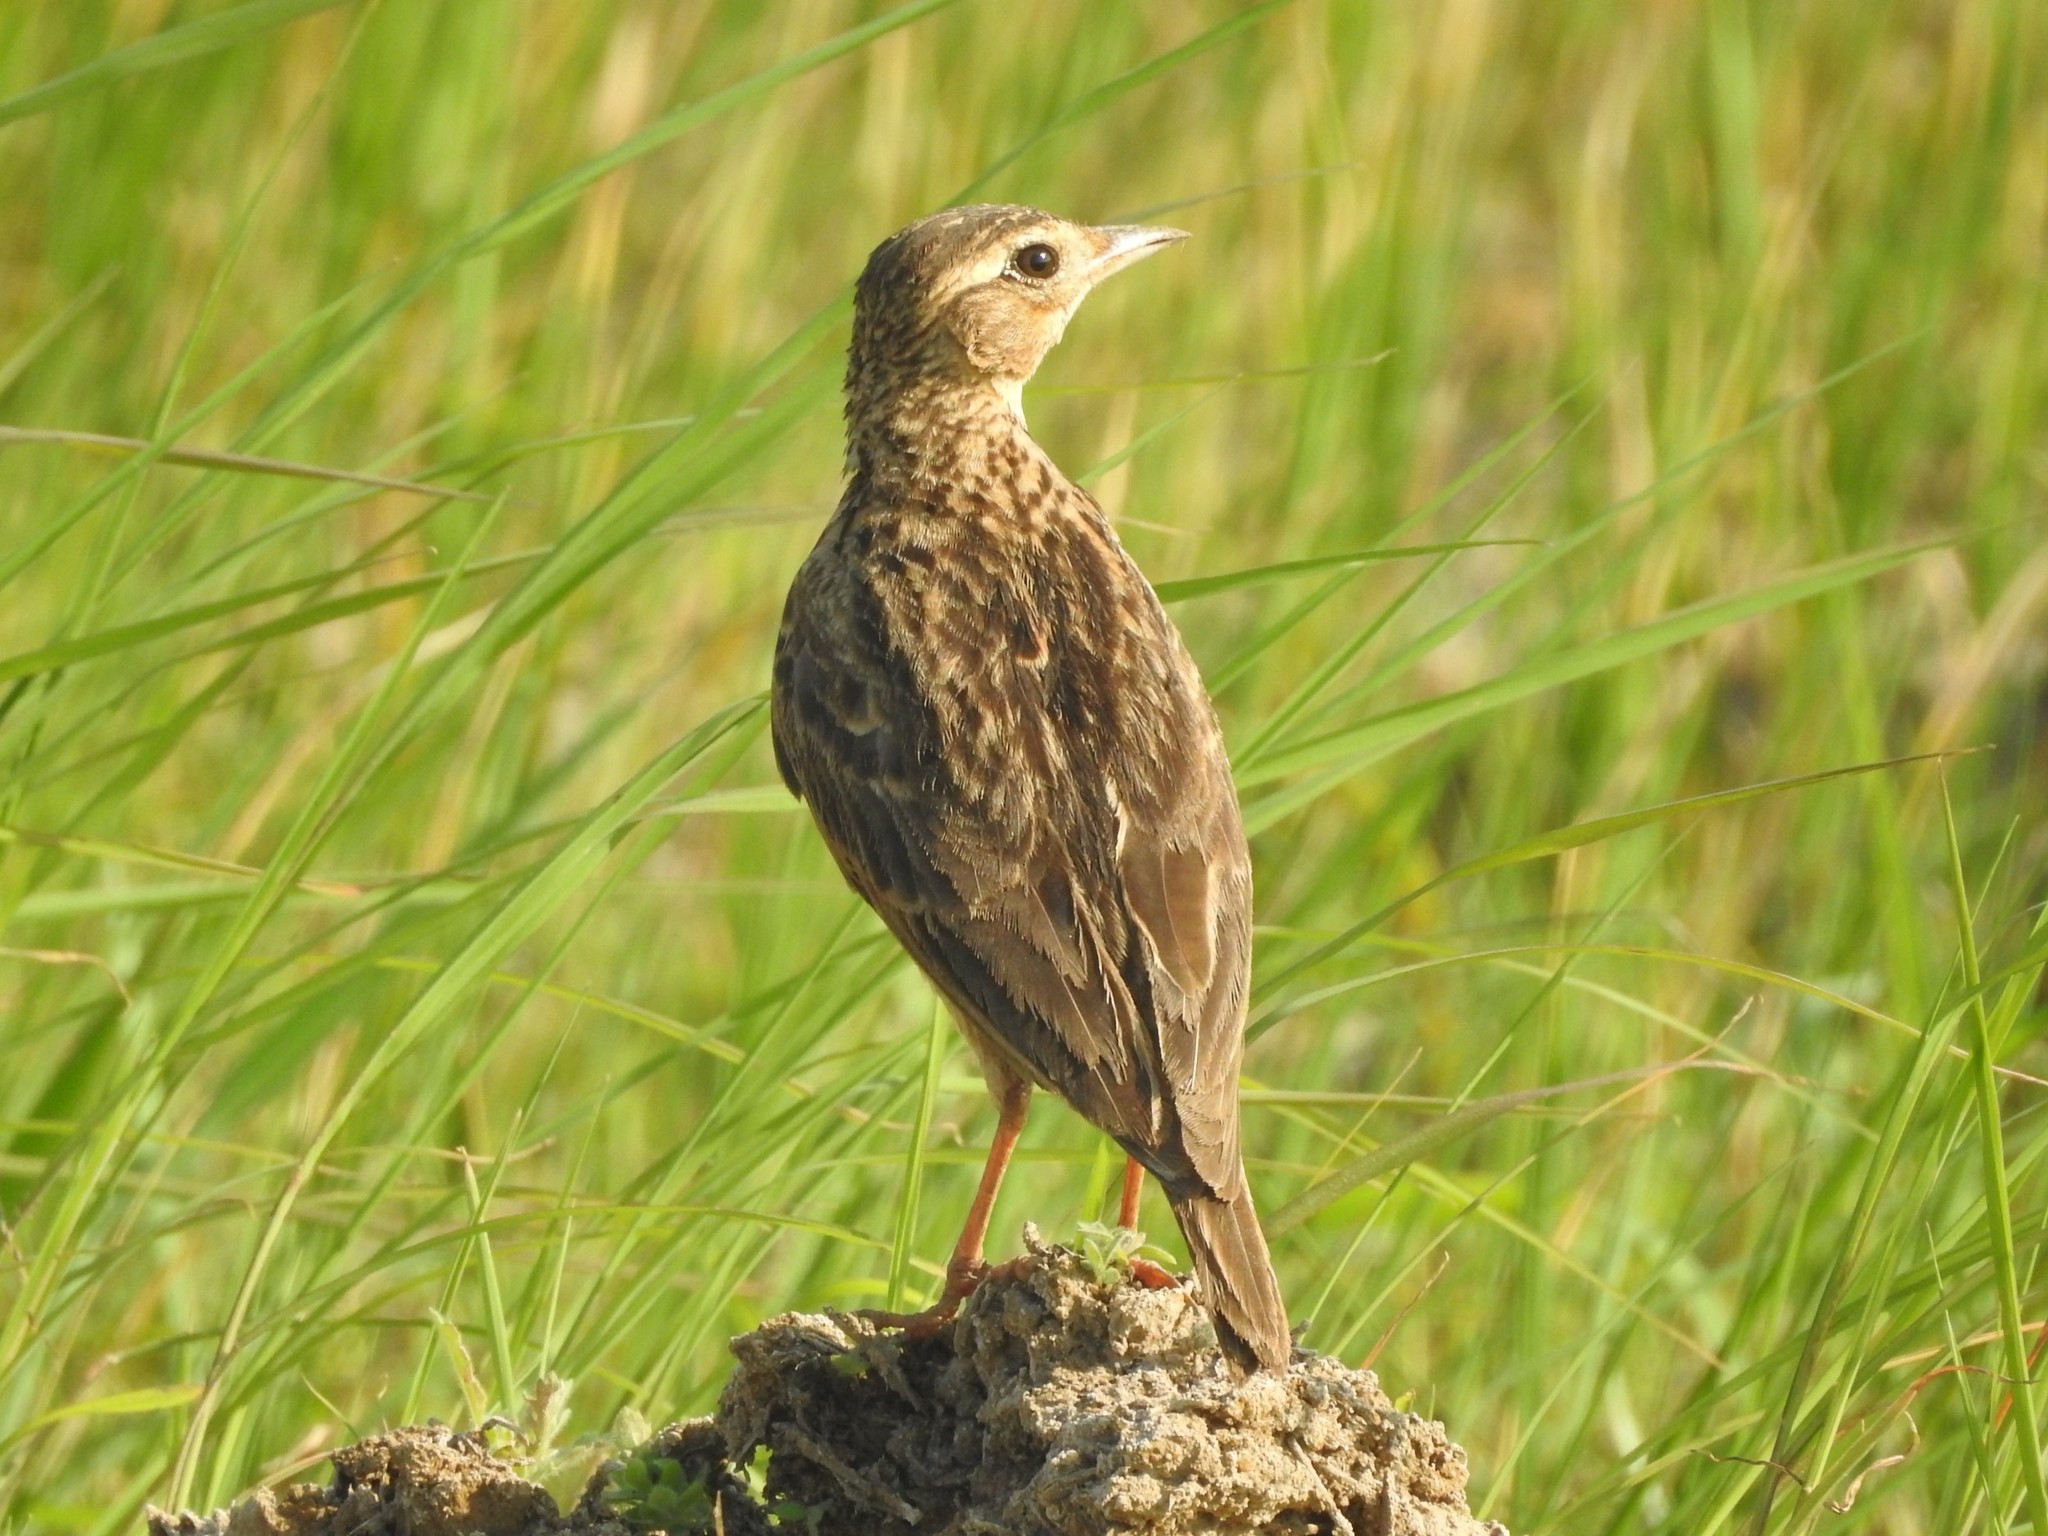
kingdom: Animalia
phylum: Chordata
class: Aves
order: Passeriformes
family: Alaudidae
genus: Alauda
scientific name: Alauda gulgula
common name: Oriental skylark
